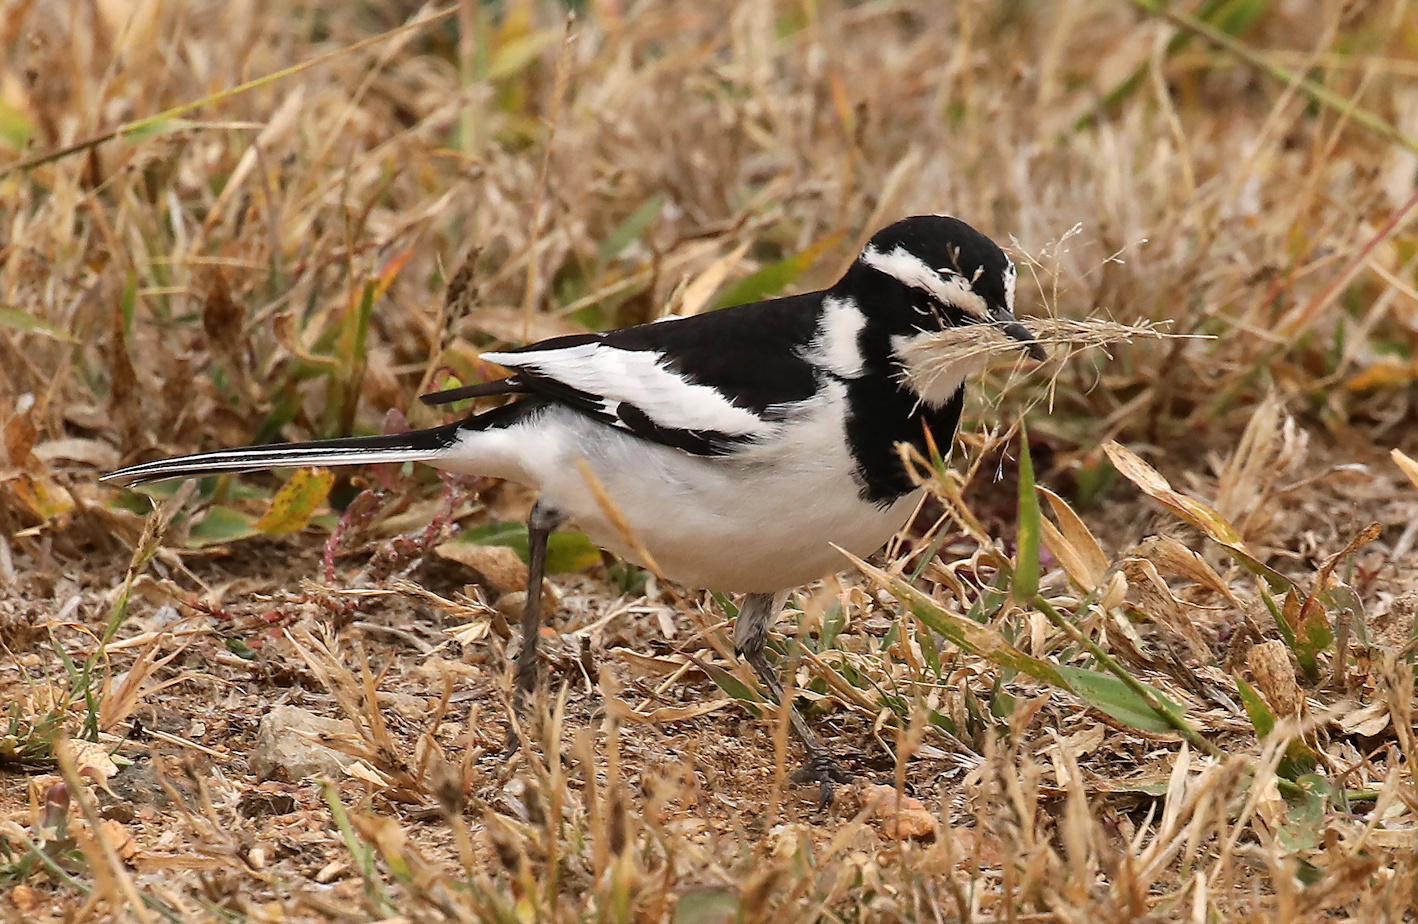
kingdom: Animalia
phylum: Chordata
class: Aves
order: Passeriformes
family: Motacillidae
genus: Motacilla
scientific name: Motacilla aguimp
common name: African pied wagtail
